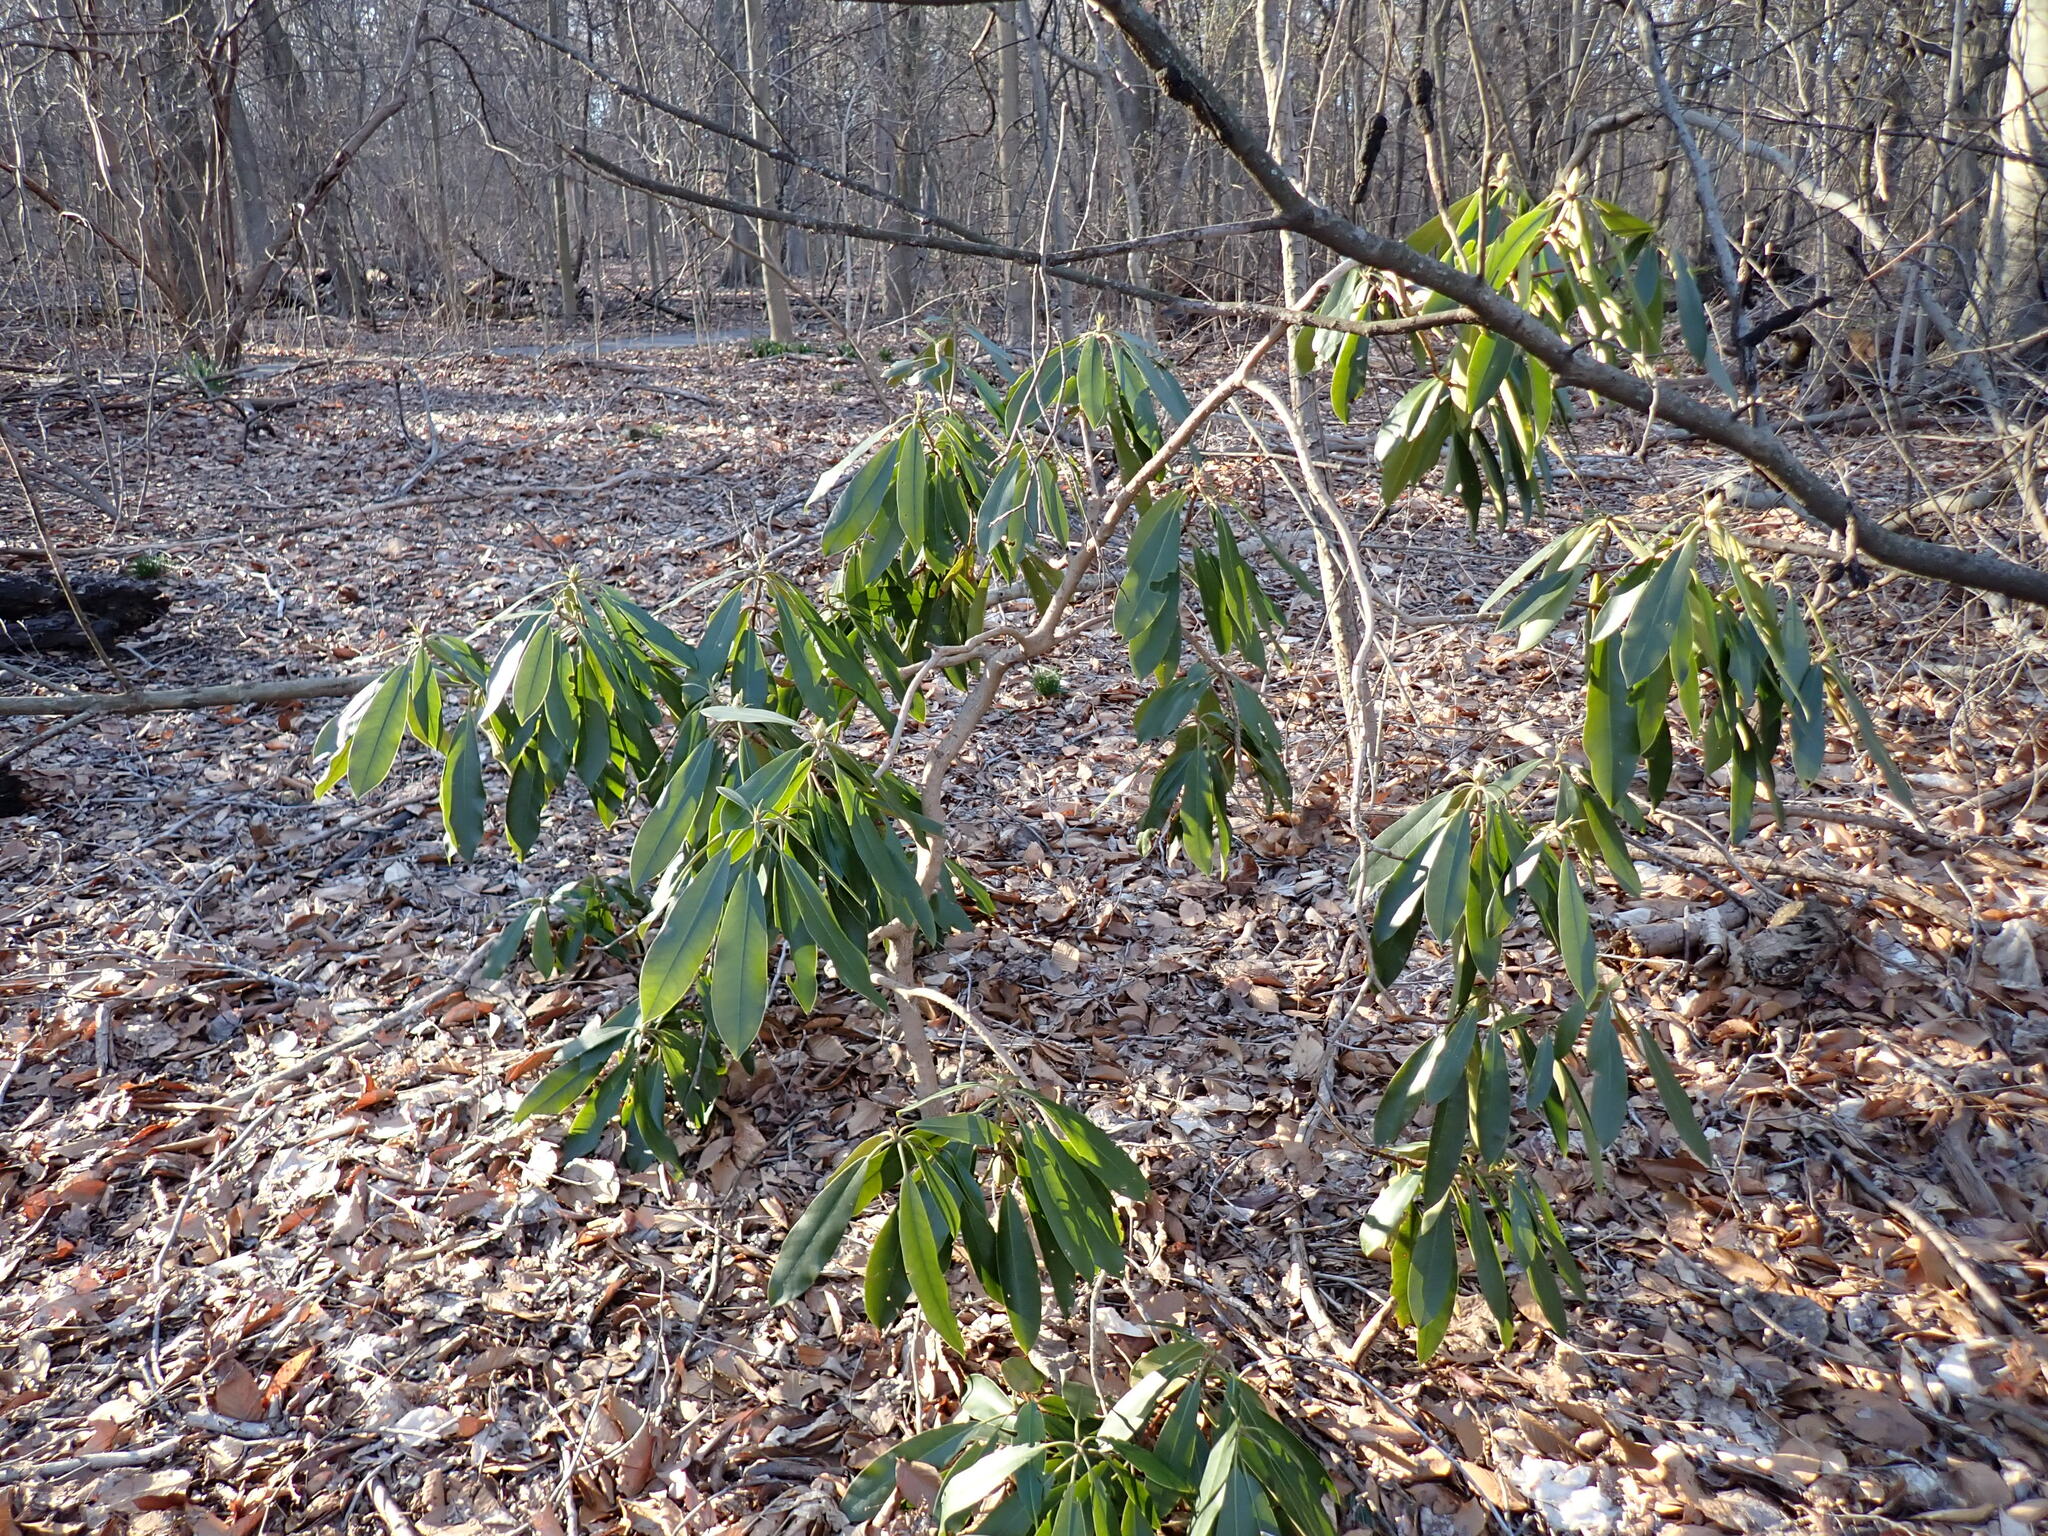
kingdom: Plantae
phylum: Tracheophyta
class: Magnoliopsida
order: Ericales
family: Ericaceae
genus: Rhododendron
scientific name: Rhododendron maximum
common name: Great rhododendron
